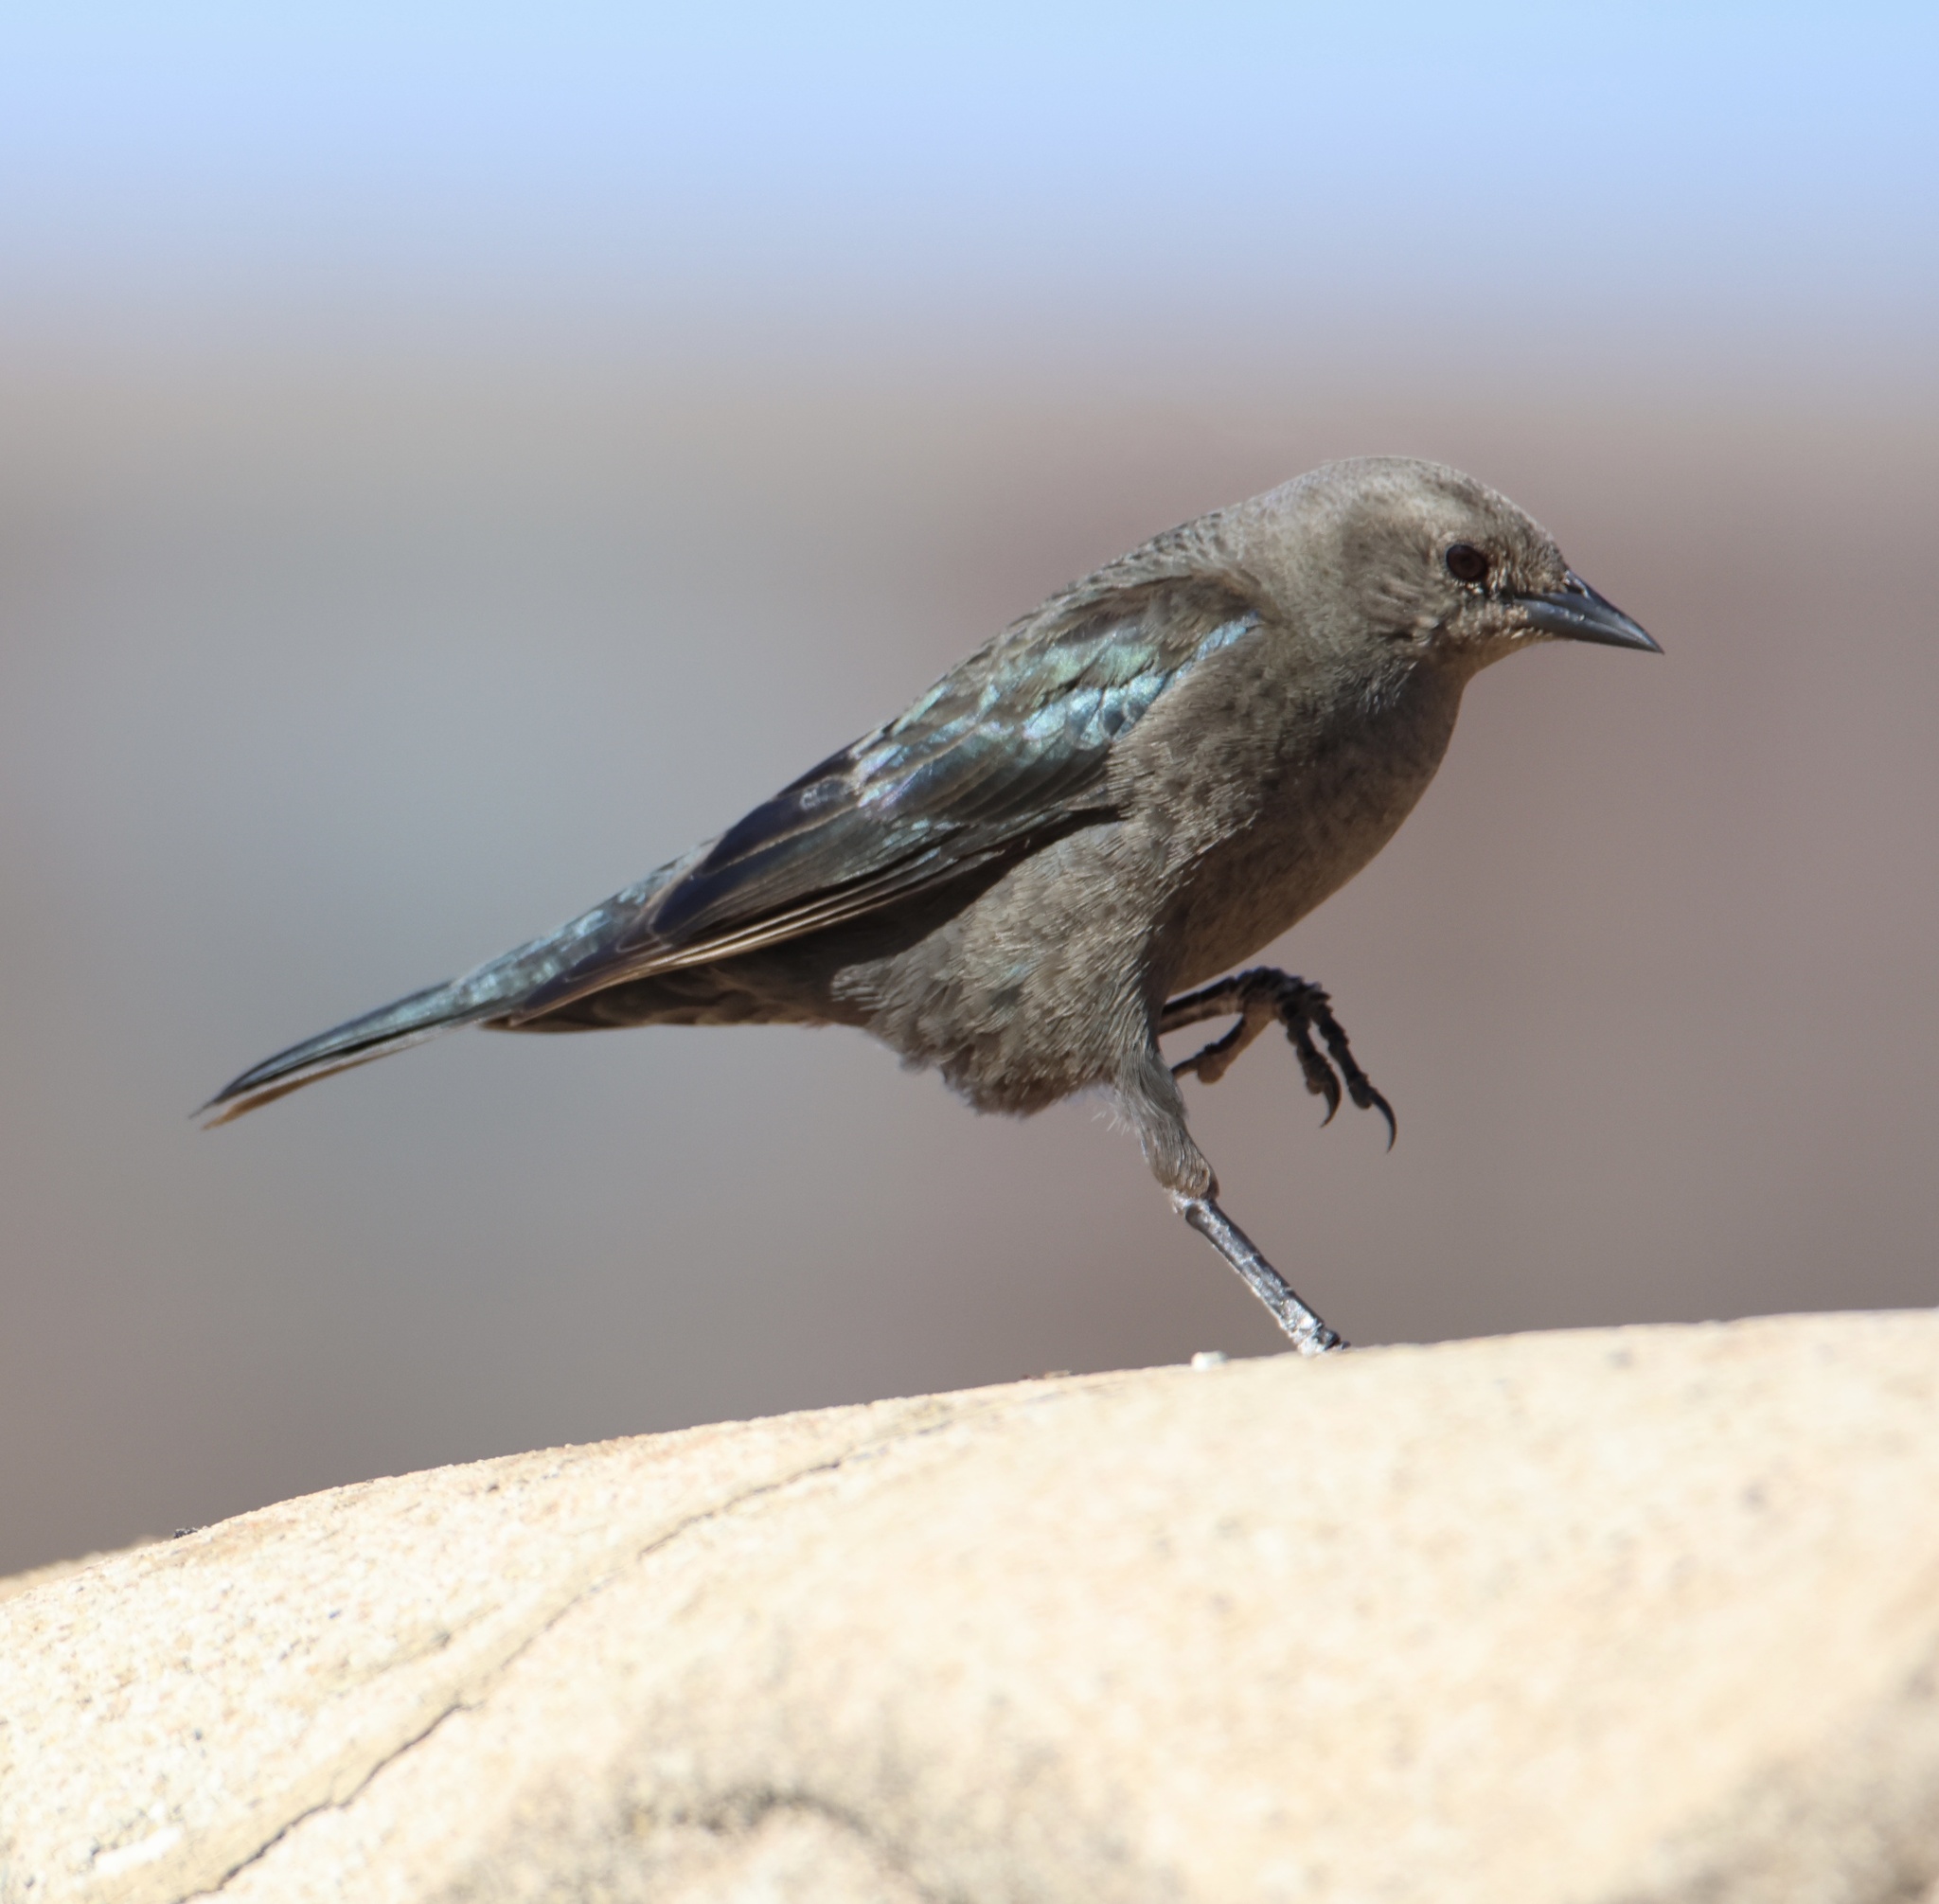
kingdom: Animalia
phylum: Chordata
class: Aves
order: Passeriformes
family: Icteridae
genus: Euphagus
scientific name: Euphagus cyanocephalus
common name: Brewer's blackbird
